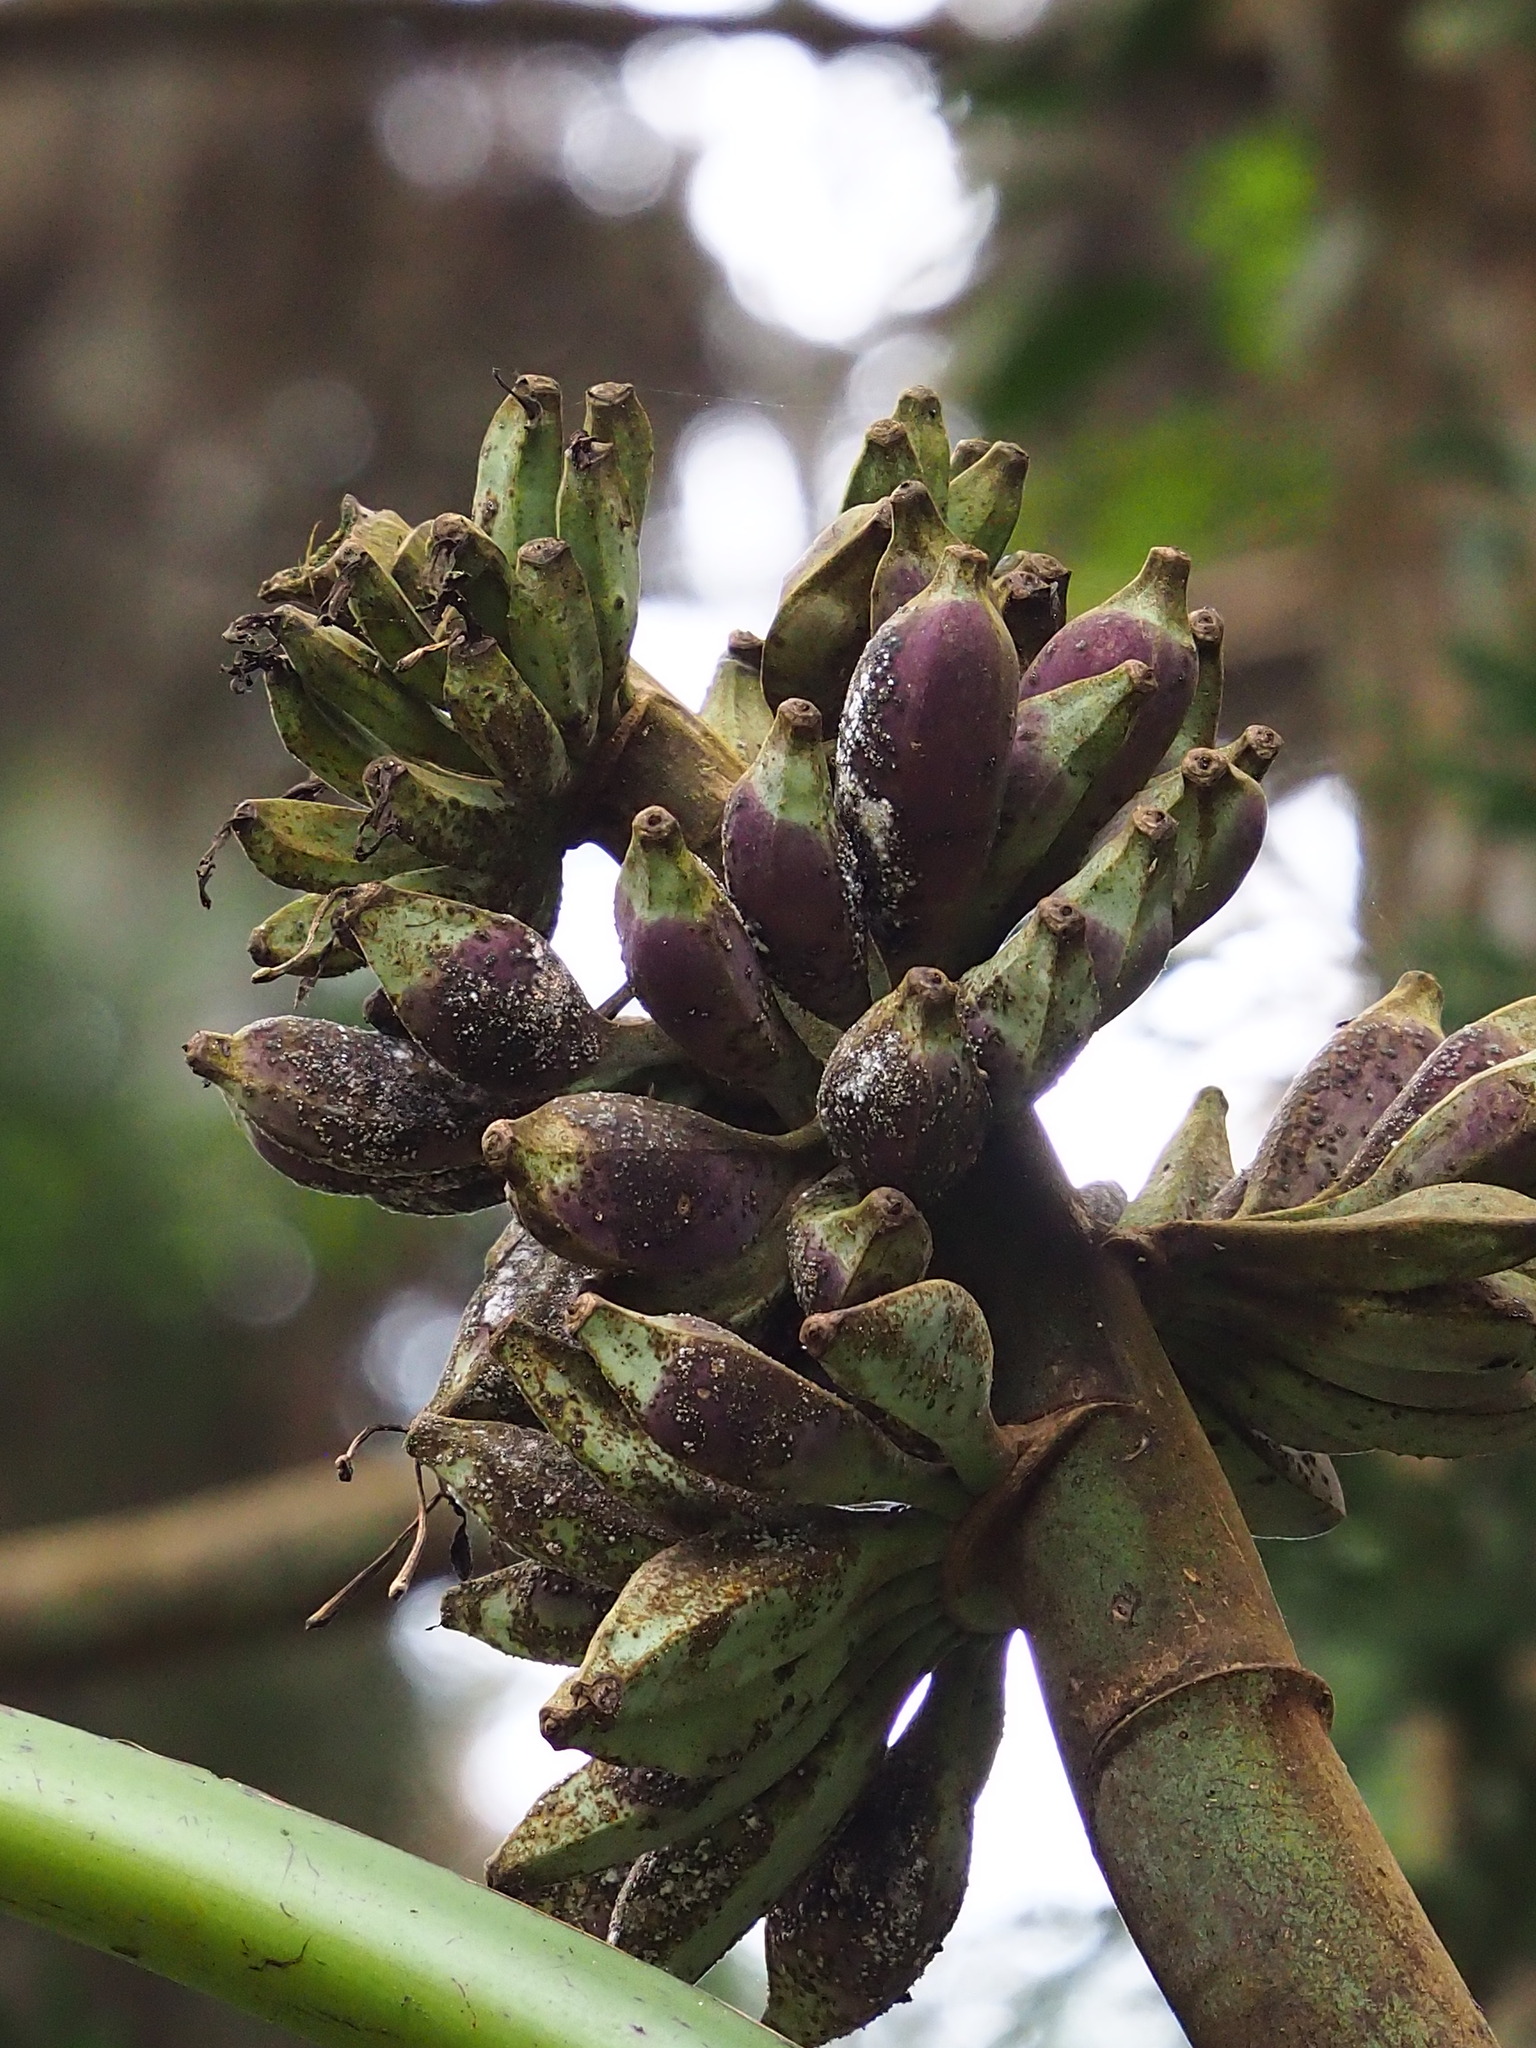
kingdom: Plantae
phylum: Tracheophyta
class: Liliopsida
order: Zingiberales
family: Musaceae
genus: Musa
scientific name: Musa itinerans
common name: Yunnan banana
